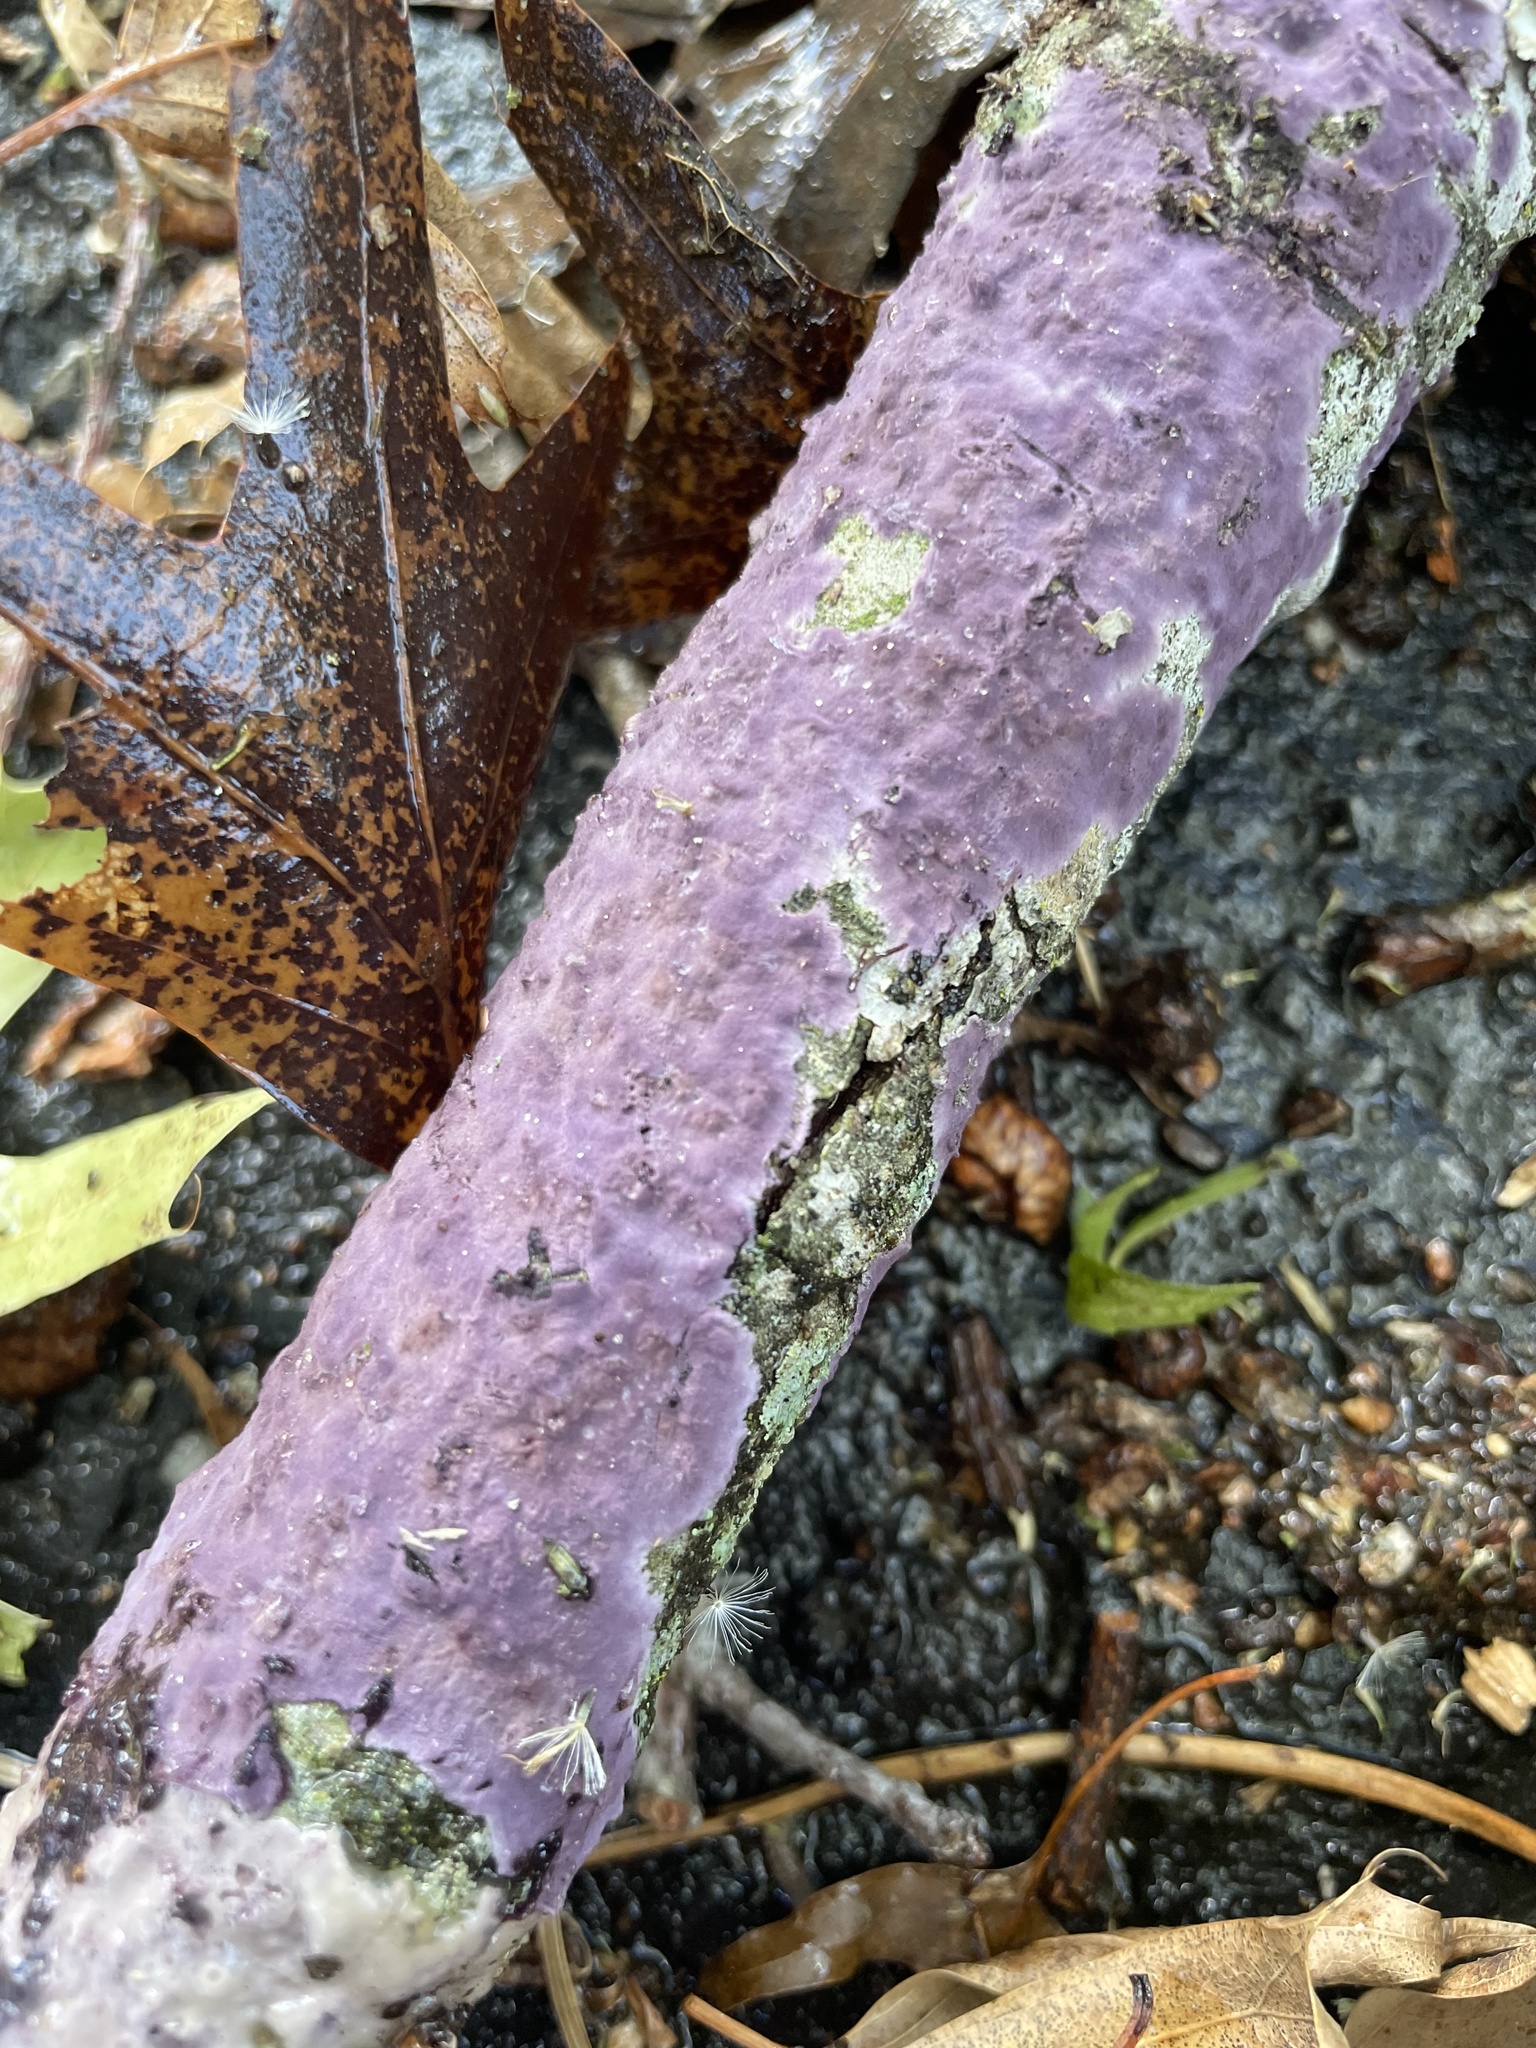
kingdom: Fungi
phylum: Basidiomycota
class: Agaricomycetes
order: Polyporales
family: Phanerochaetaceae
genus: Phlebiopsis
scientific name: Phlebiopsis crassa
